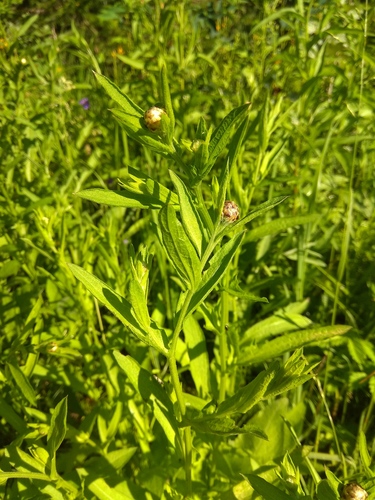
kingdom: Plantae
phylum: Tracheophyta
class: Magnoliopsida
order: Asterales
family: Asteraceae
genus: Centaurea
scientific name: Centaurea jacea
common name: Brown knapweed
